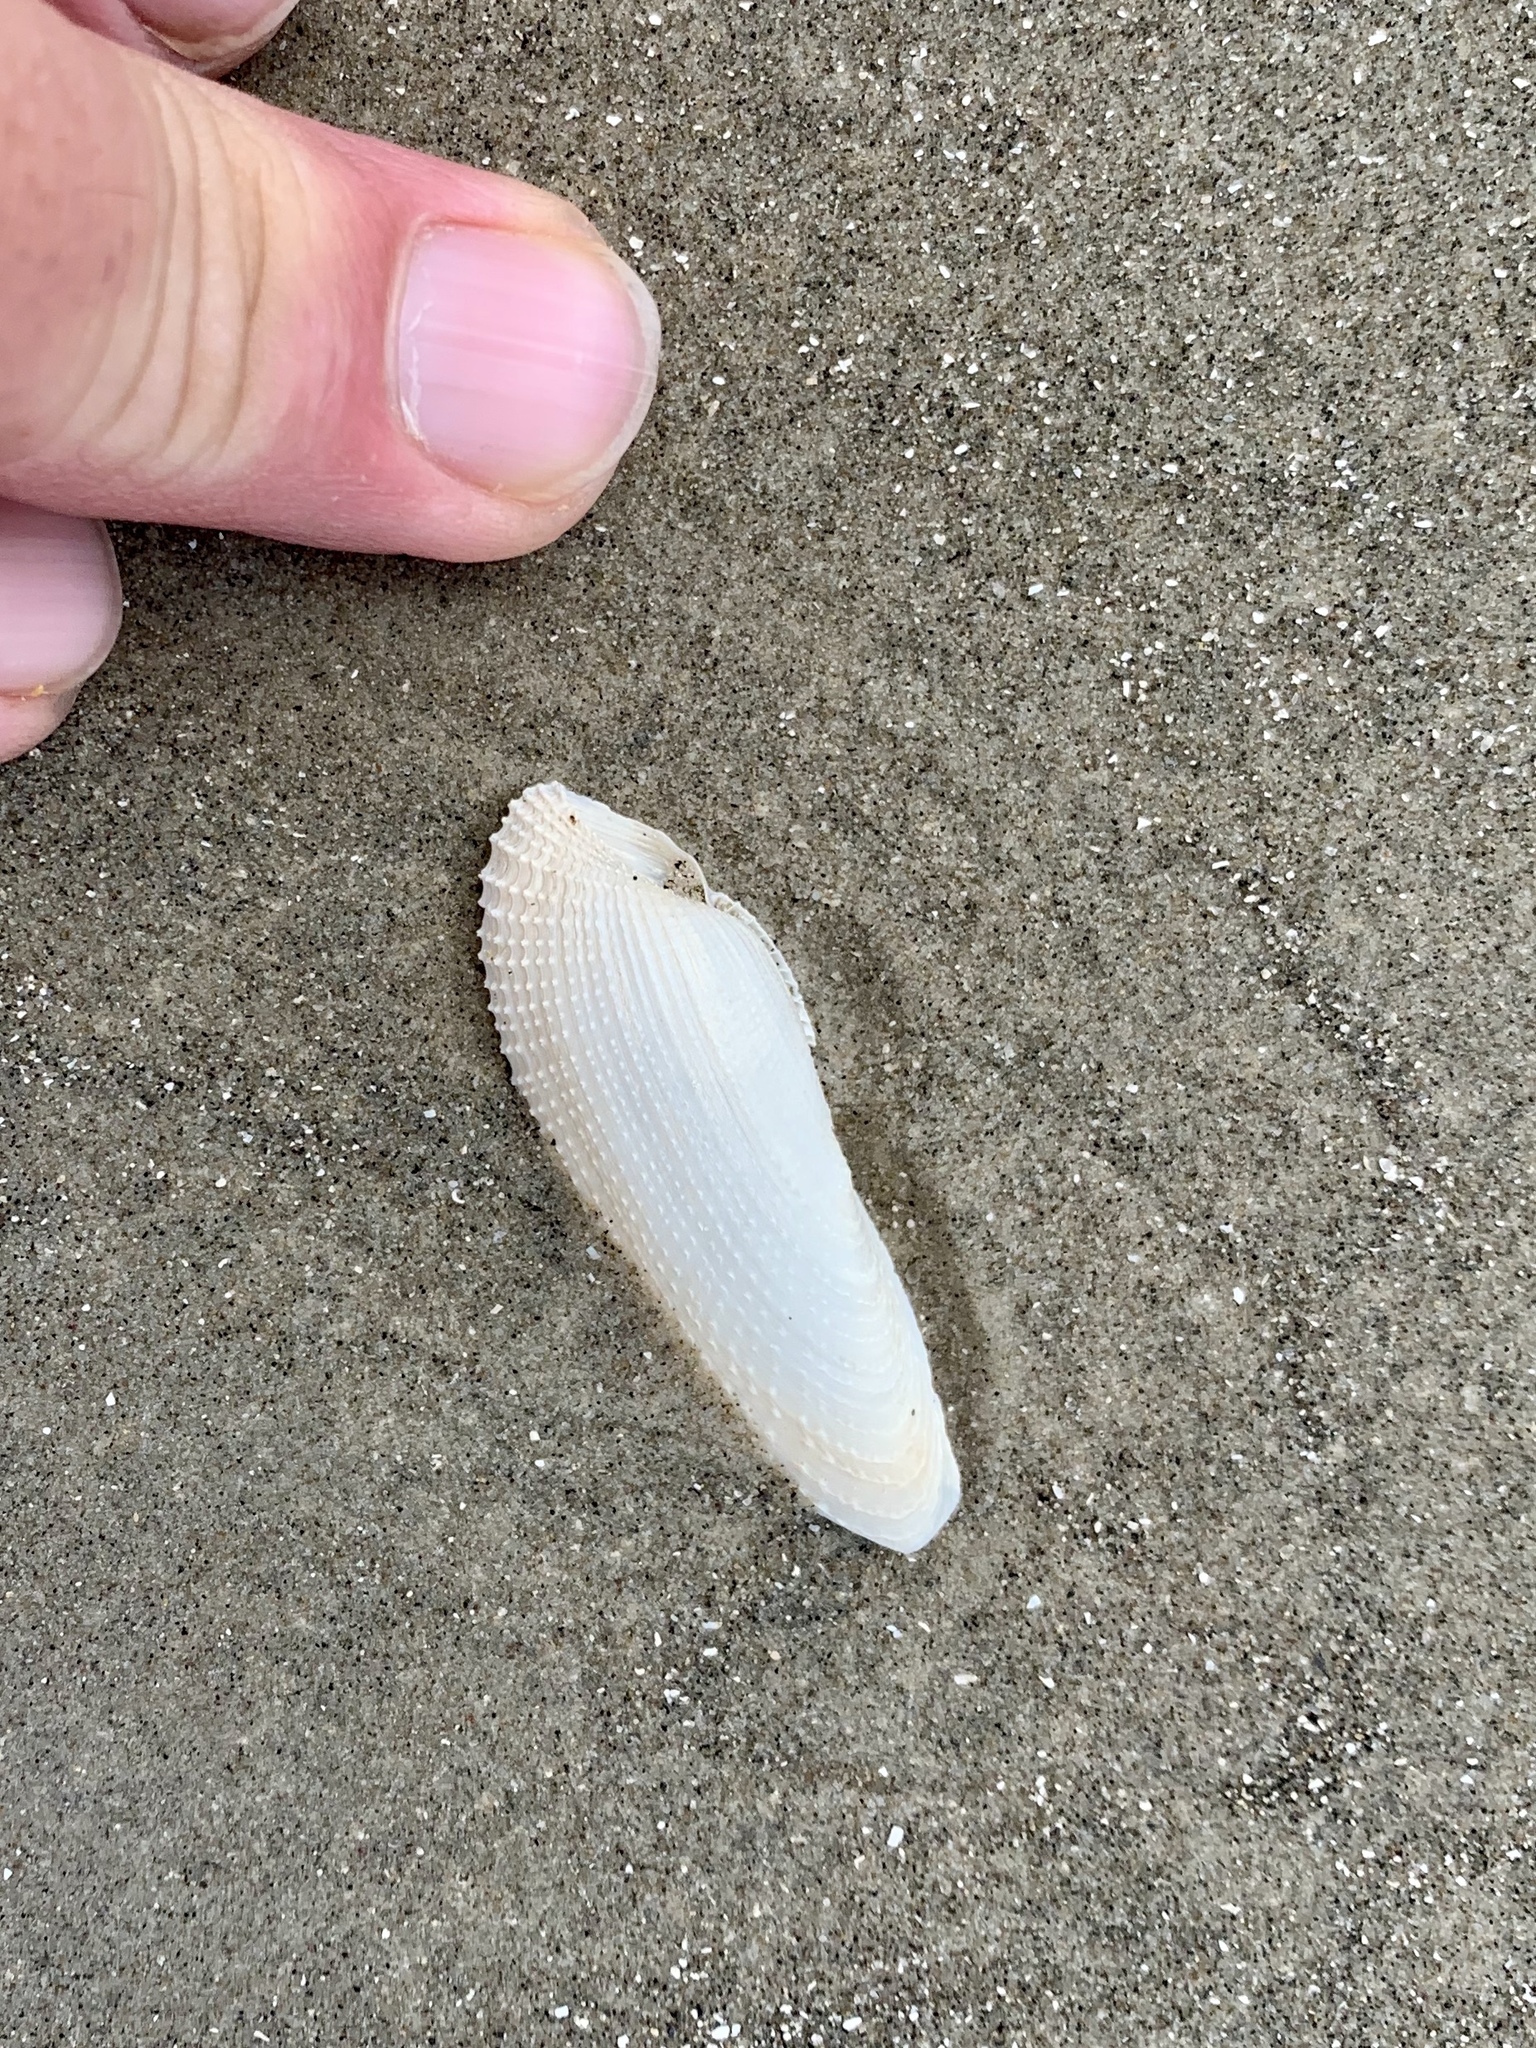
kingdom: Animalia
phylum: Mollusca
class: Bivalvia
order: Myida
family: Pholadidae
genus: Pholas
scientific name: Pholas campechiensis
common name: Campeche angel wing
